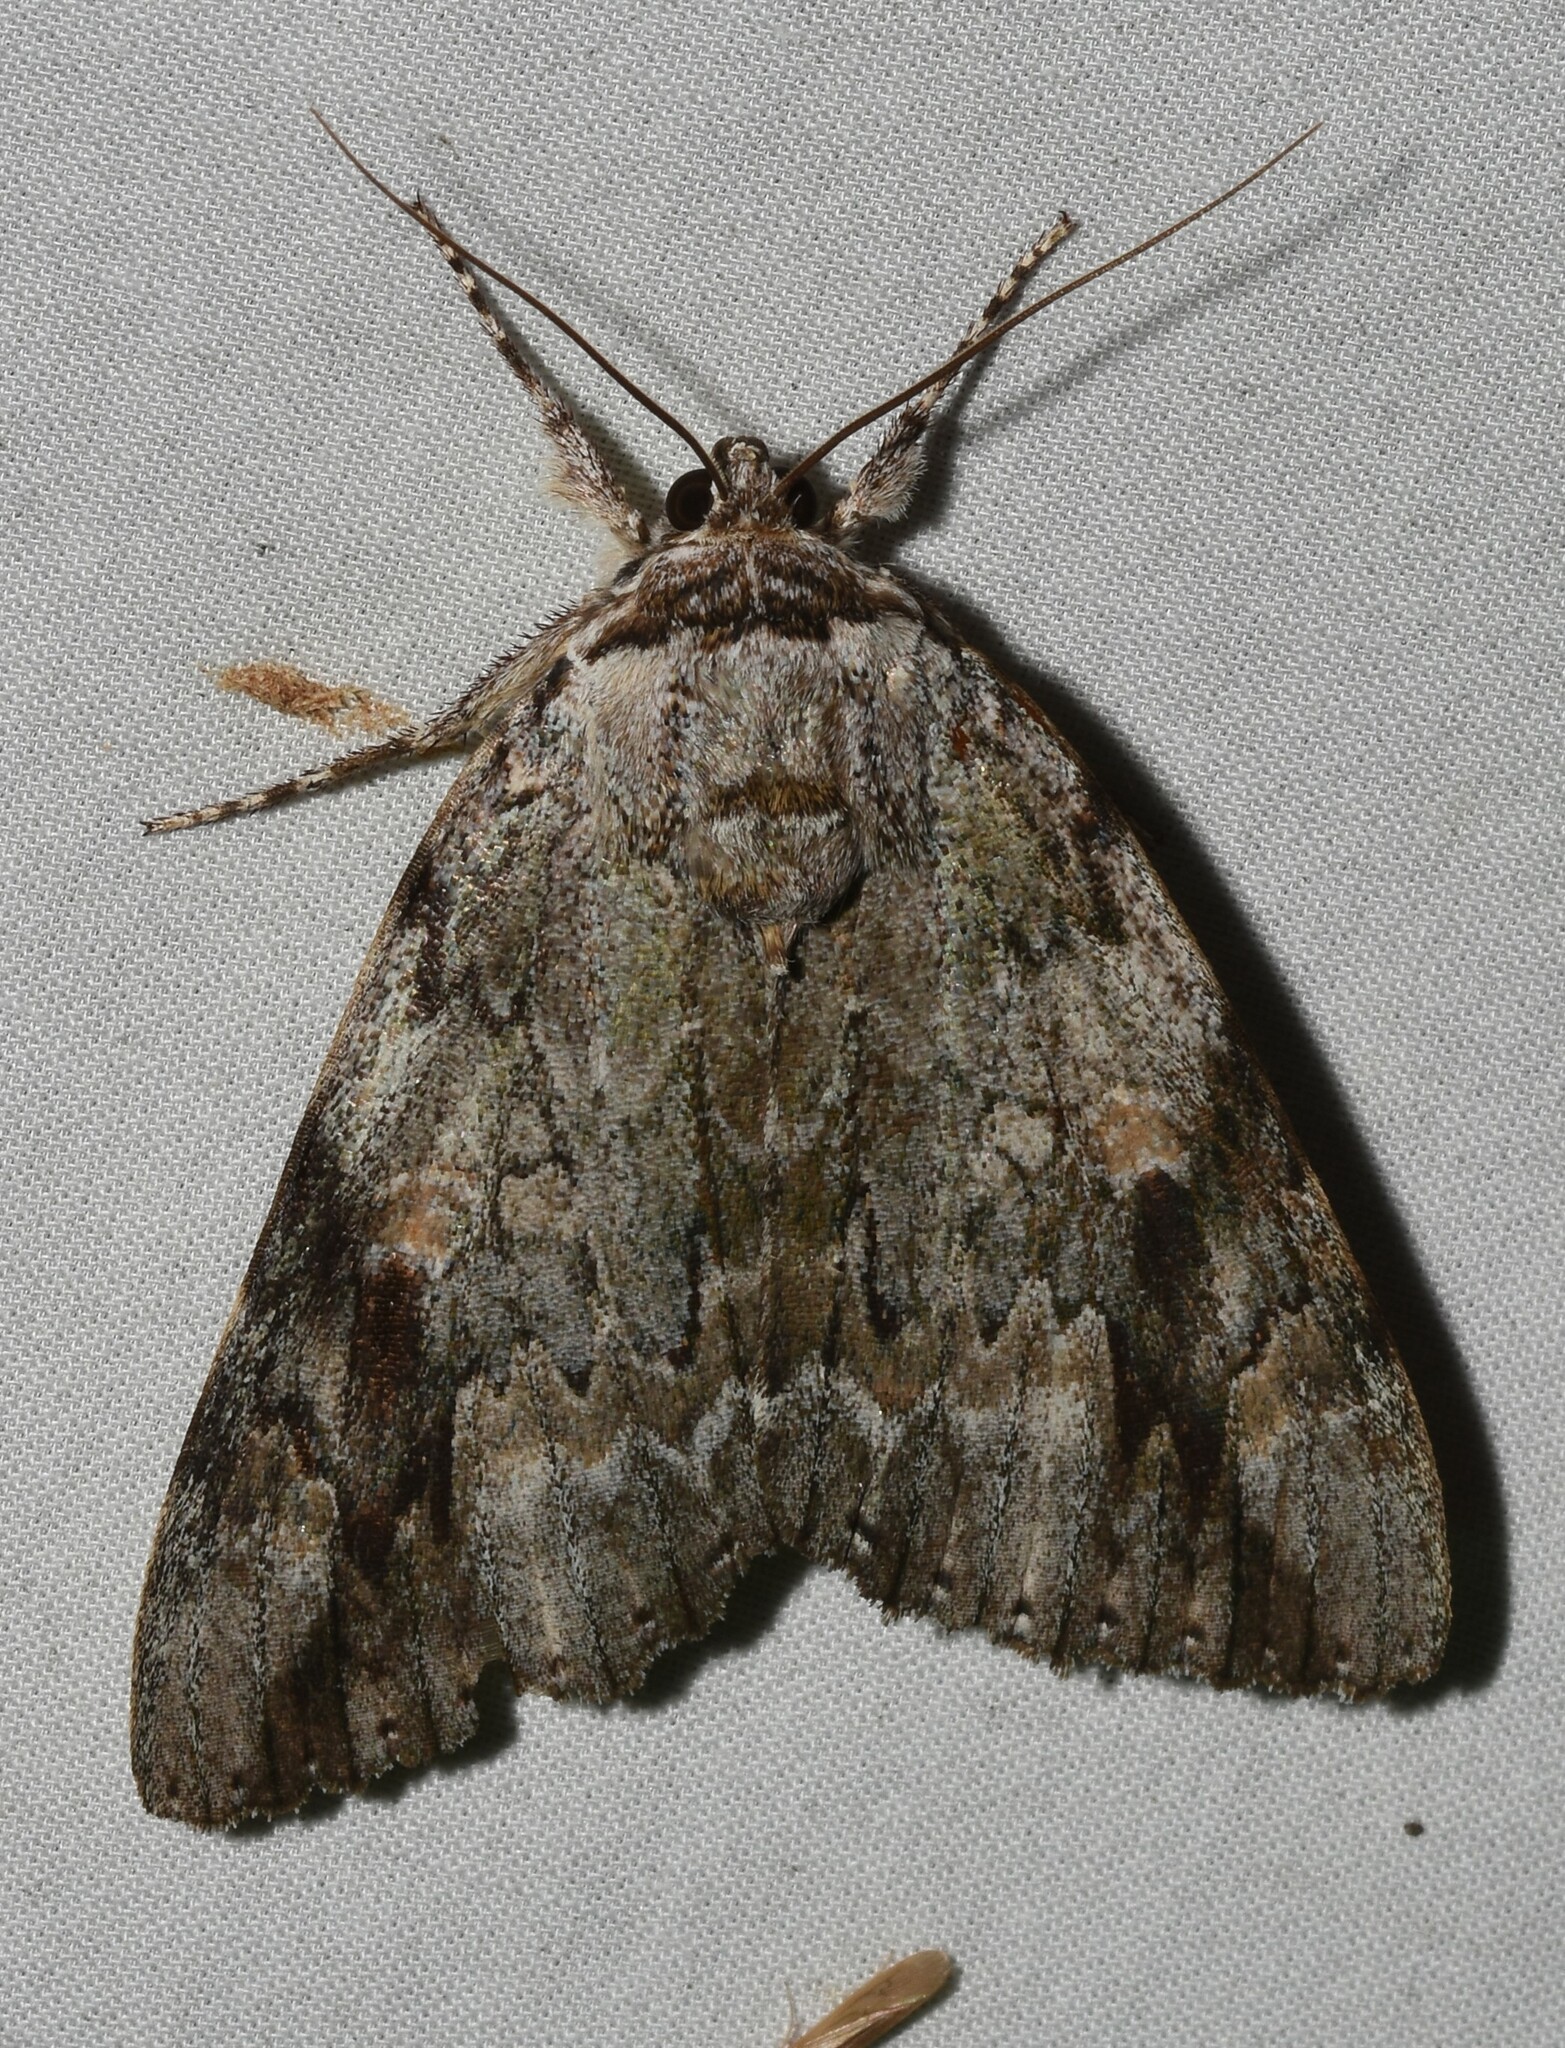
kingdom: Animalia
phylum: Arthropoda
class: Insecta
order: Lepidoptera
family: Erebidae
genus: Catocala
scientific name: Catocala maestosa
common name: Sad underwing
